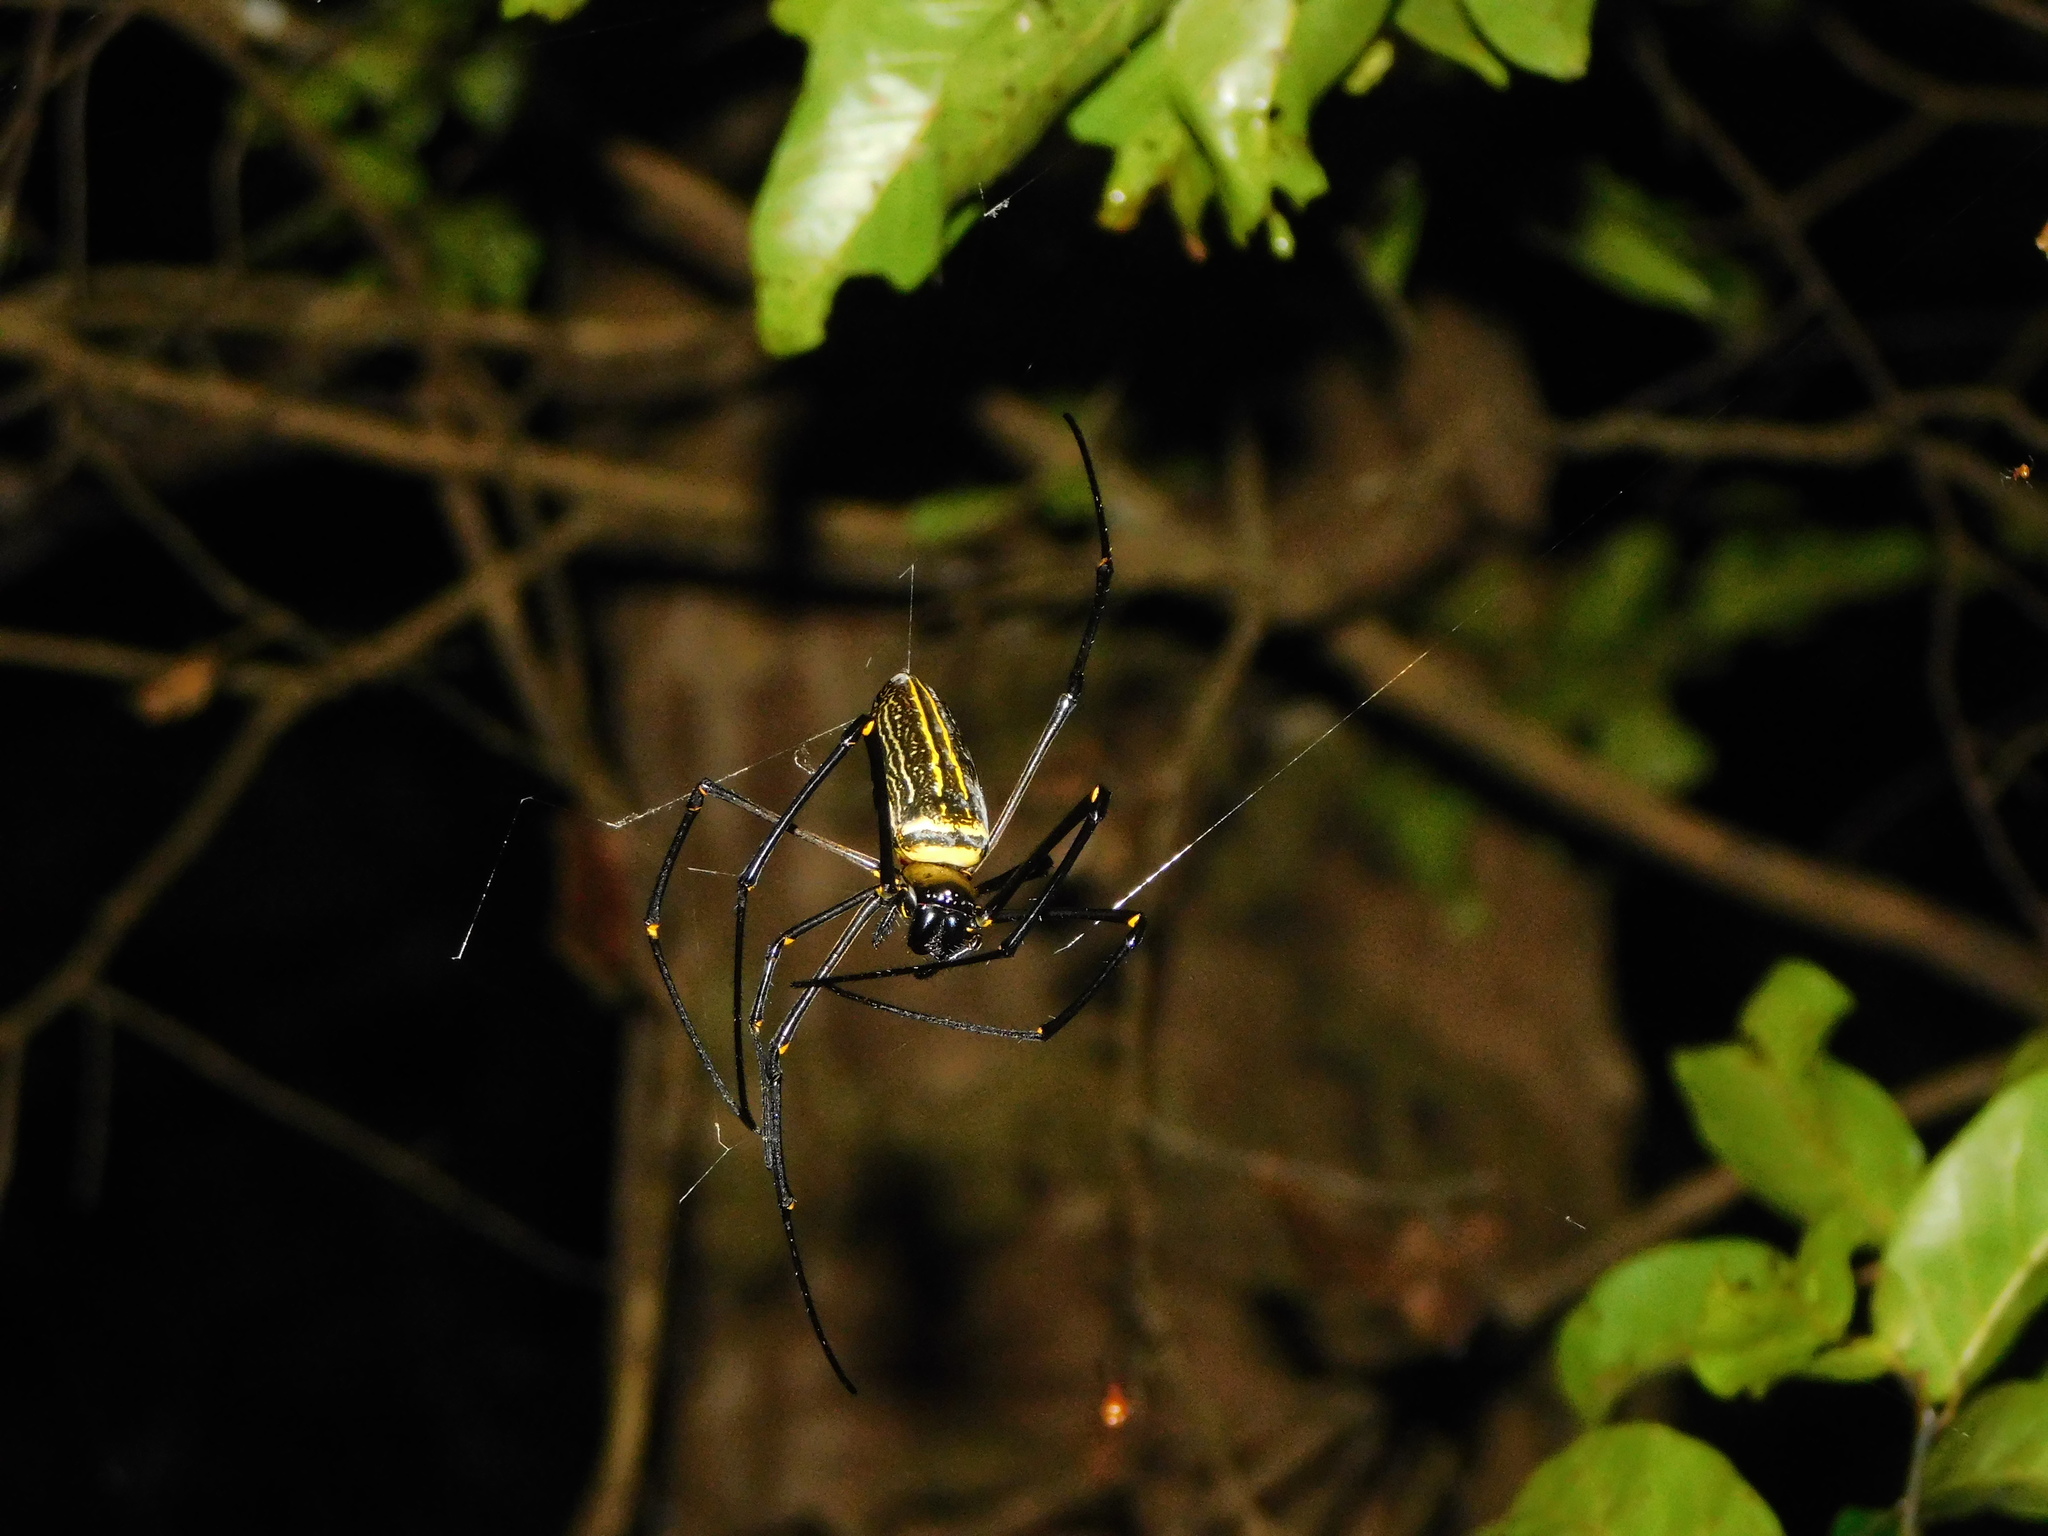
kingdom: Animalia
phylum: Arthropoda
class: Arachnida
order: Araneae
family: Araneidae
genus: Nephila
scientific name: Nephila pilipes
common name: Giant golden orb weaver
